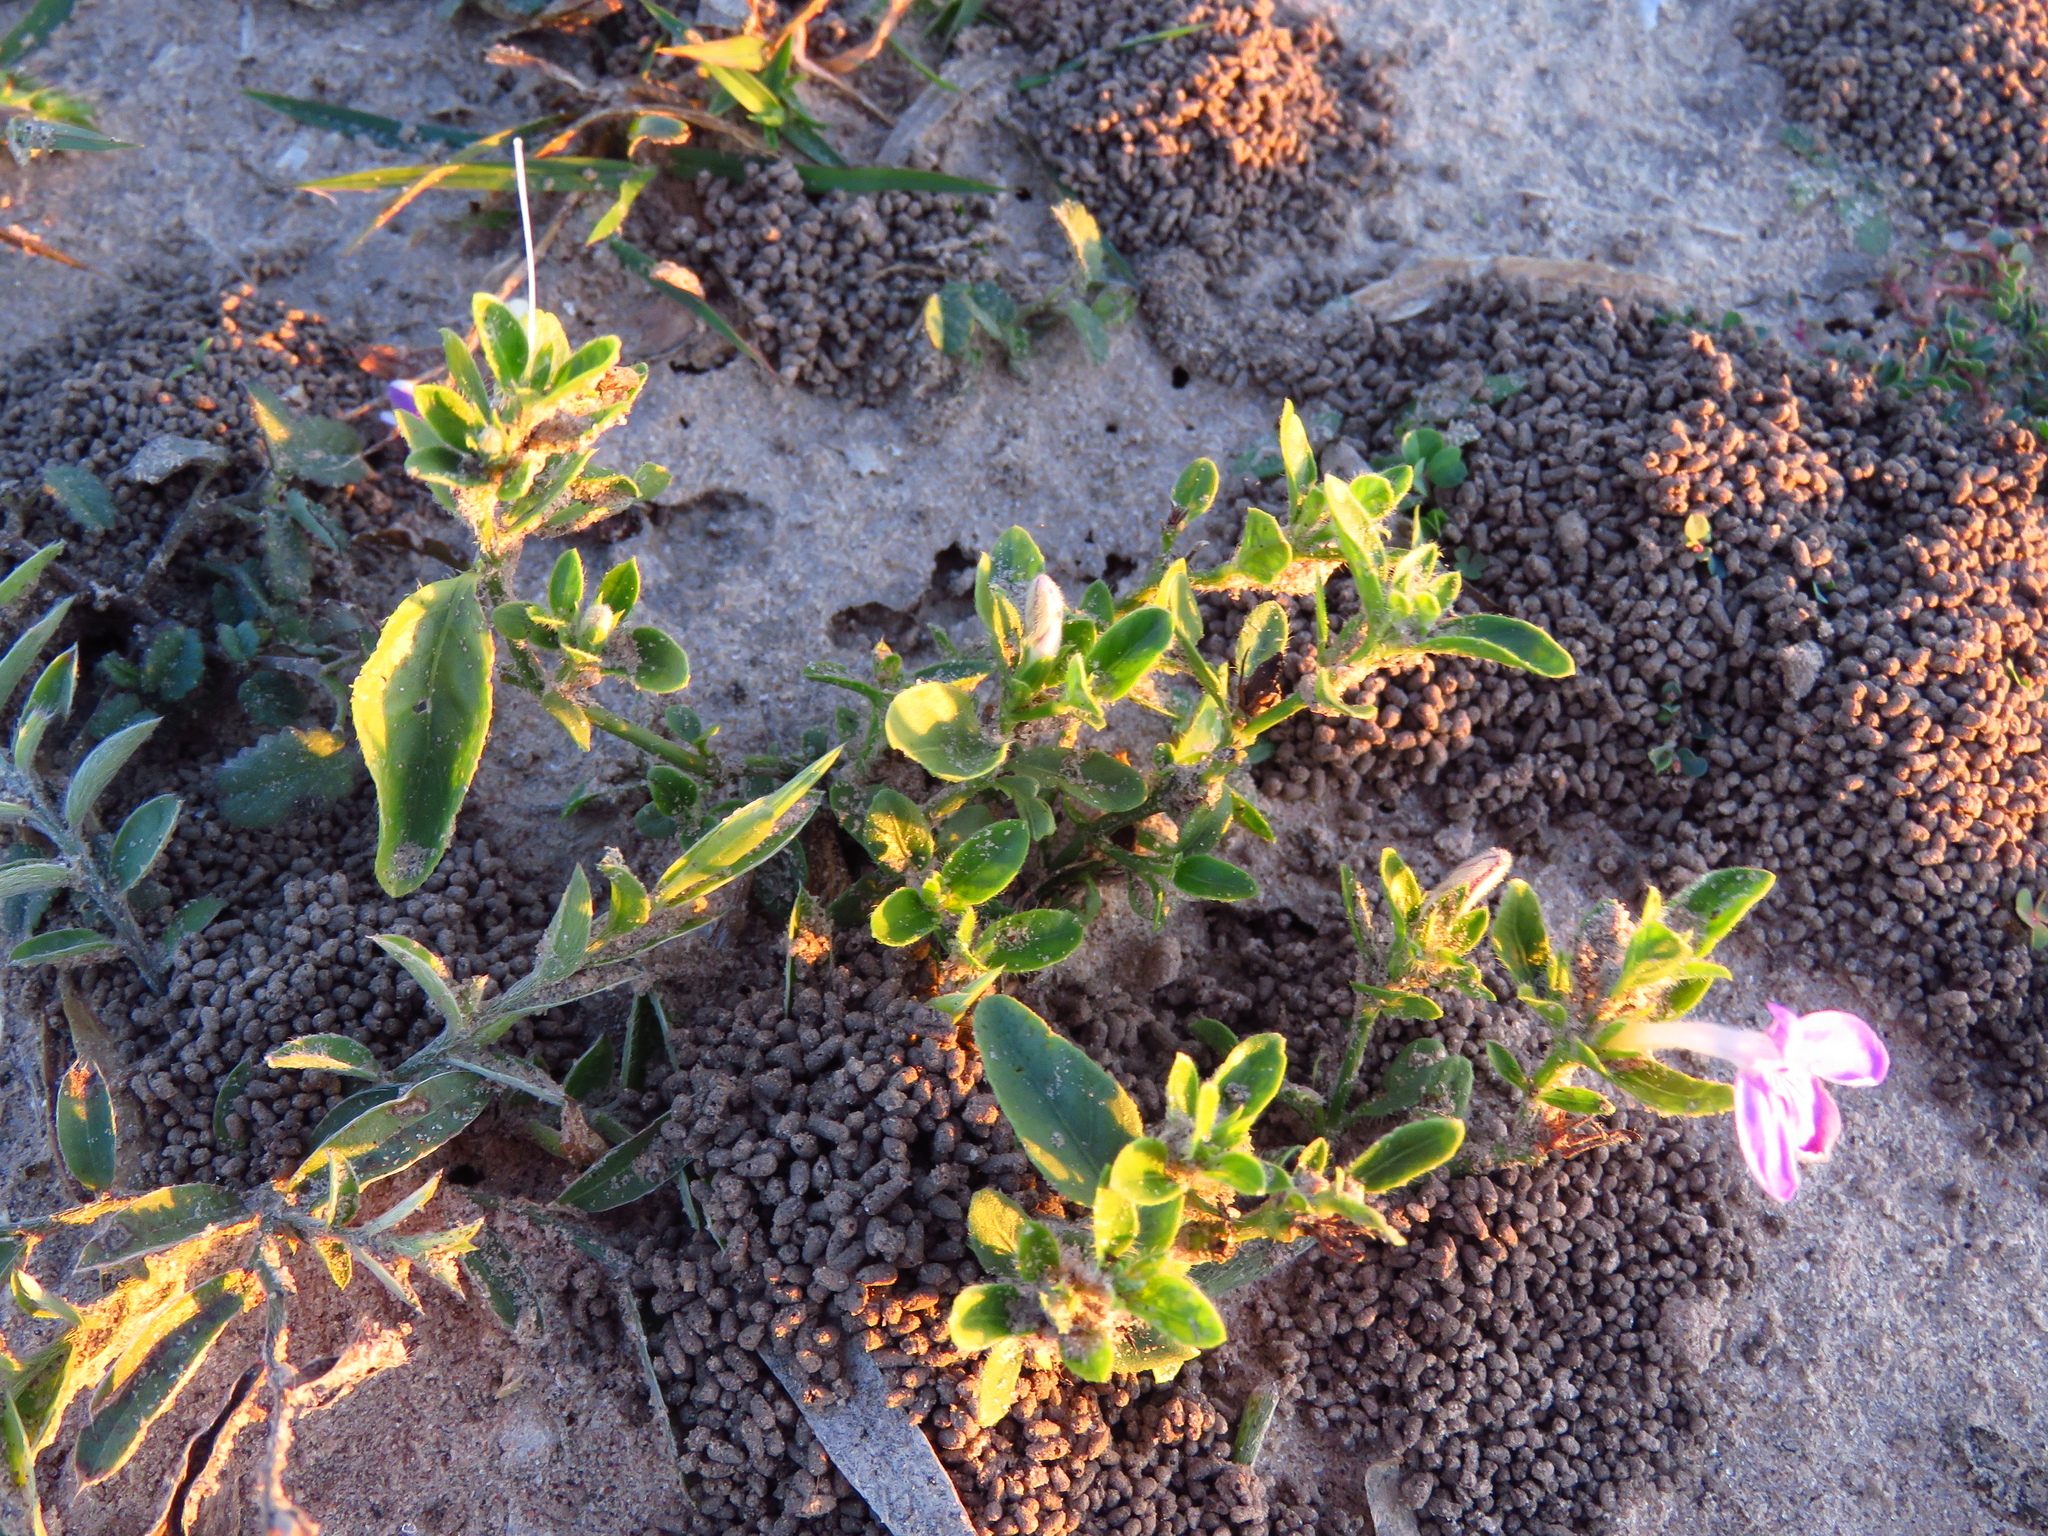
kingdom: Plantae
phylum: Tracheophyta
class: Magnoliopsida
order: Lamiales
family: Acanthaceae
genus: Justicia
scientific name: Justicia pilosella
